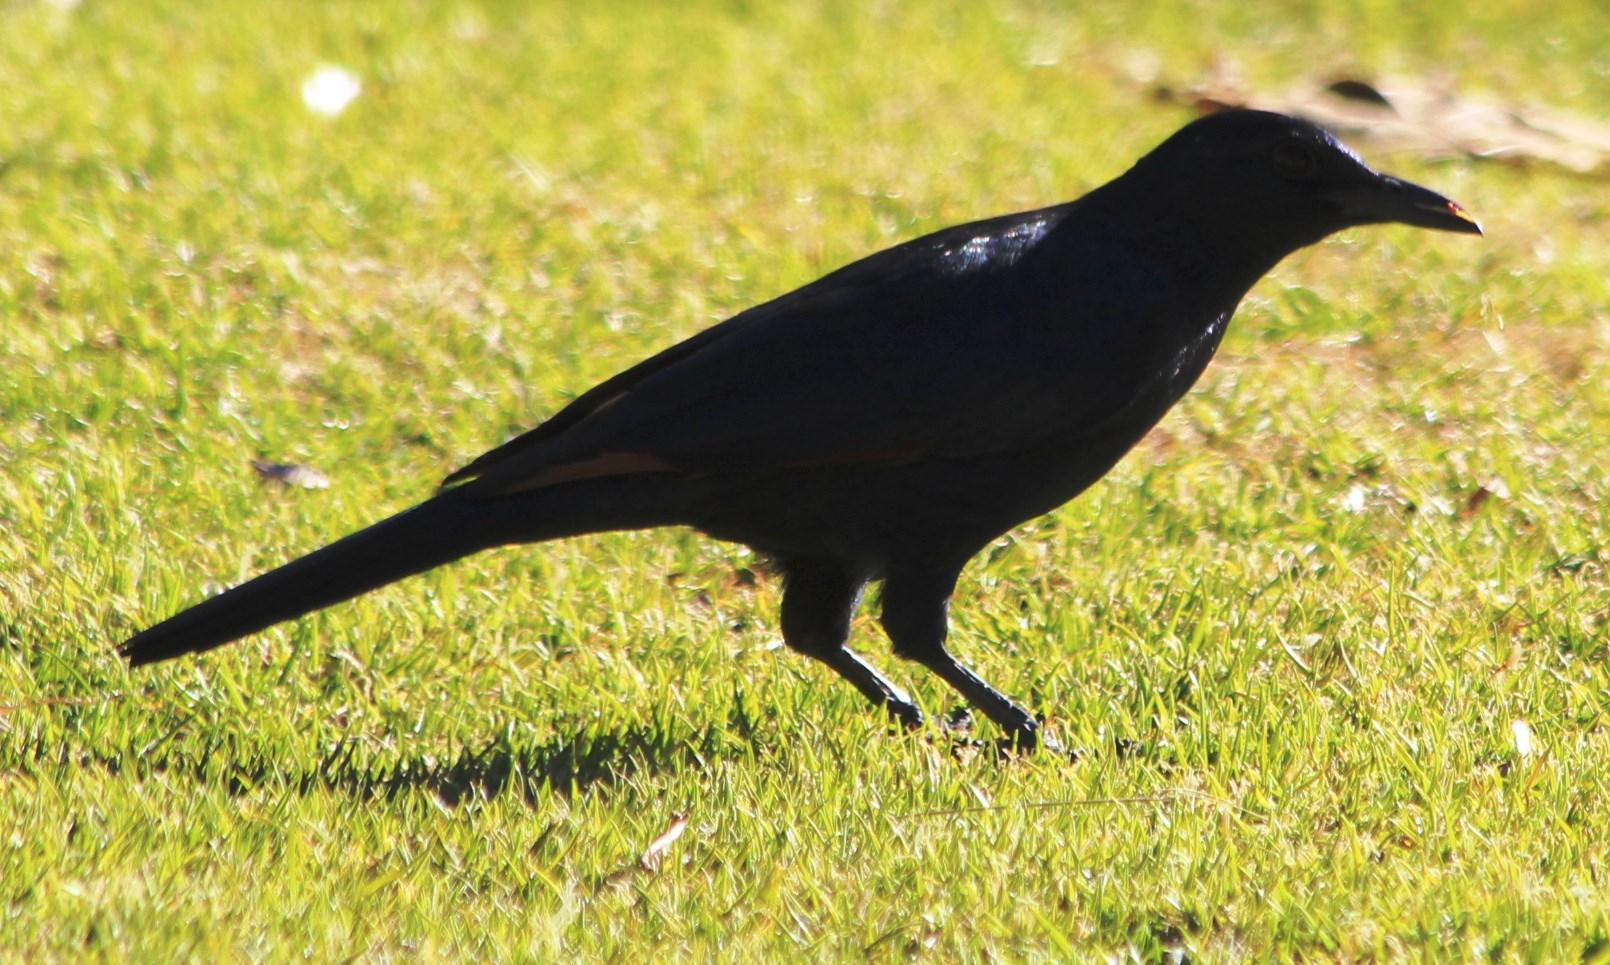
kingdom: Animalia
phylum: Chordata
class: Aves
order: Passeriformes
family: Sturnidae
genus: Onychognathus
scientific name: Onychognathus morio
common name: Red-winged starling
